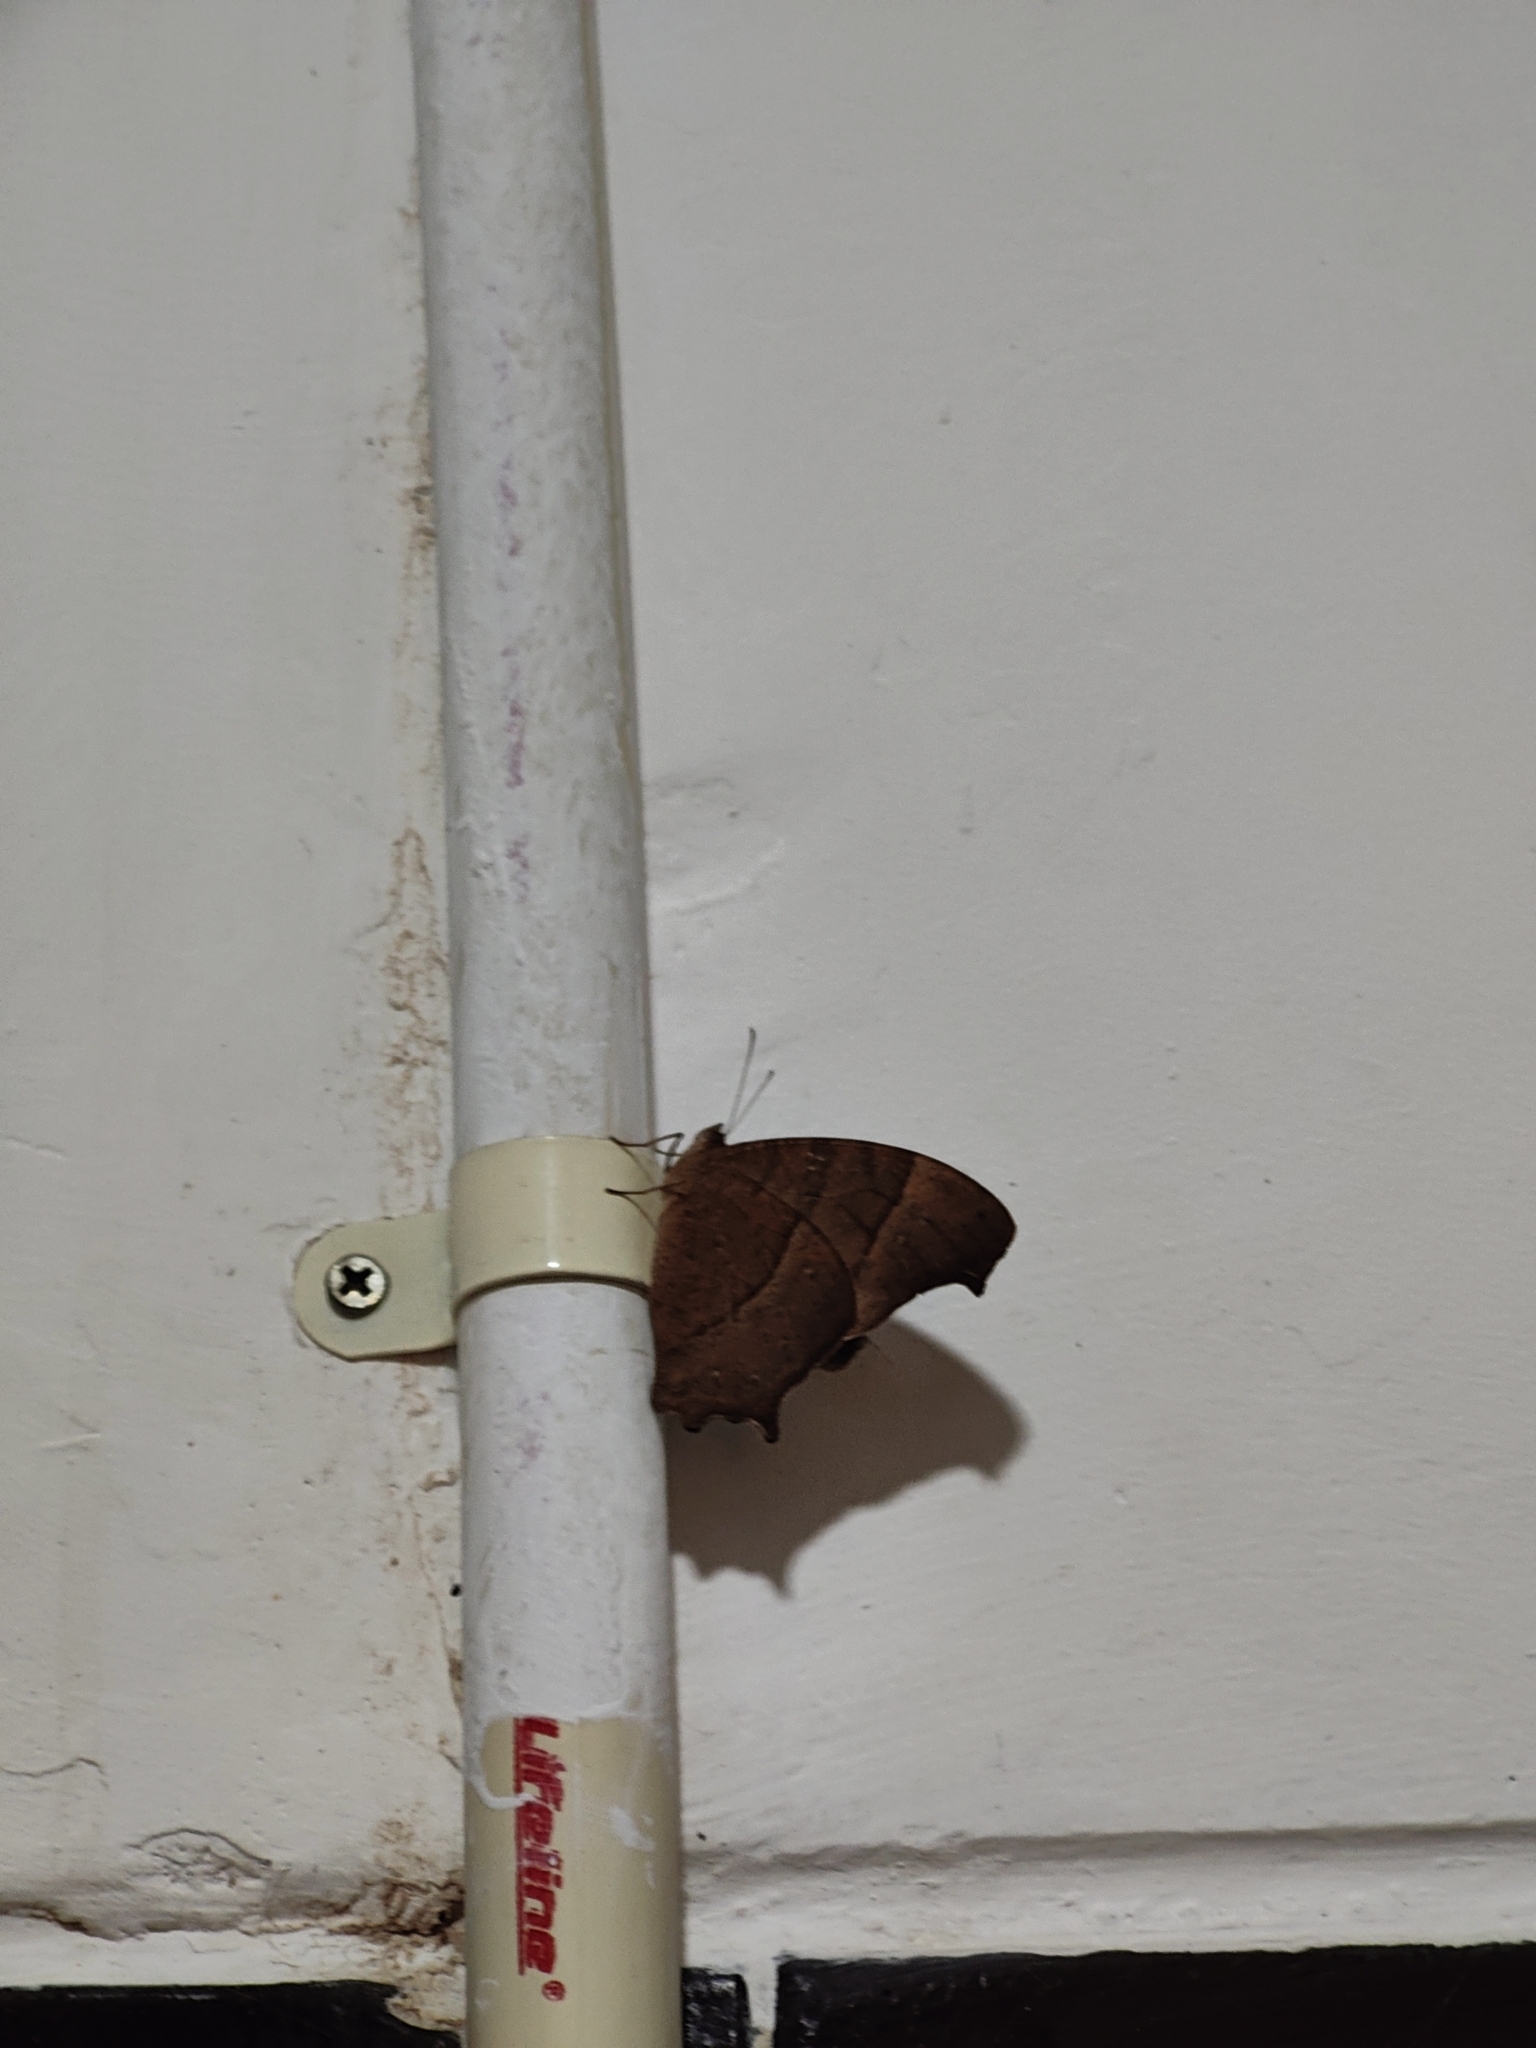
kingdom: Animalia
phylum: Arthropoda
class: Insecta
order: Lepidoptera
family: Nymphalidae
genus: Melanitis
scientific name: Melanitis leda
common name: Twilight brown
